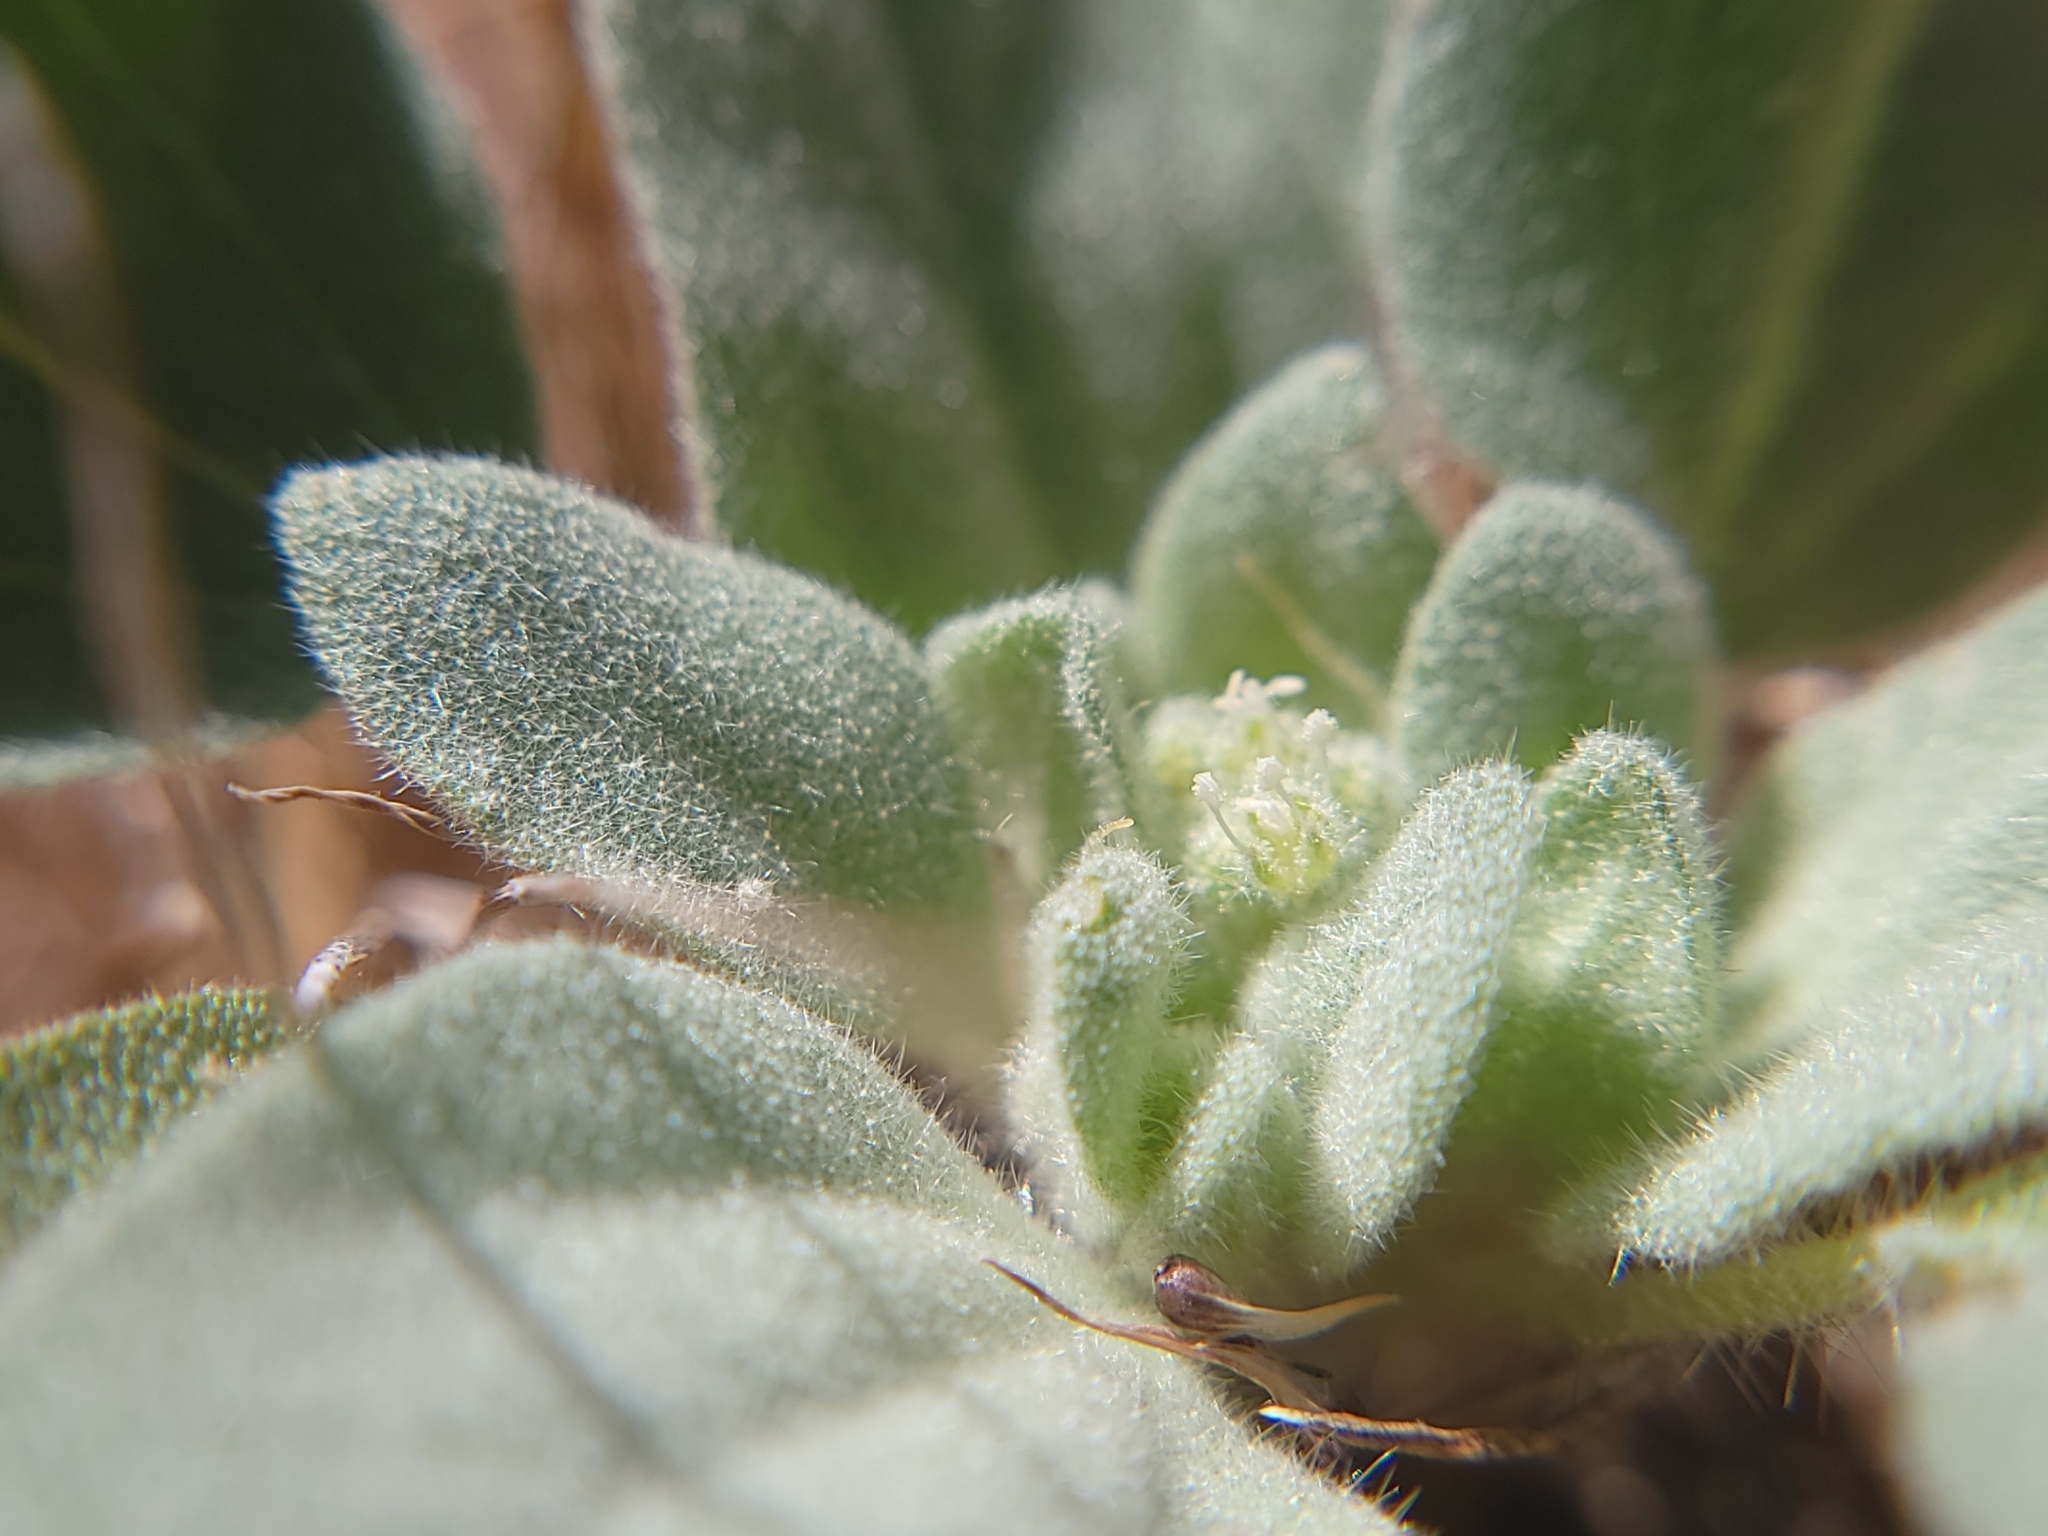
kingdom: Plantae
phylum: Tracheophyta
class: Magnoliopsida
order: Malpighiales
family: Euphorbiaceae
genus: Croton
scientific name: Croton setiger
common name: Dove weed
